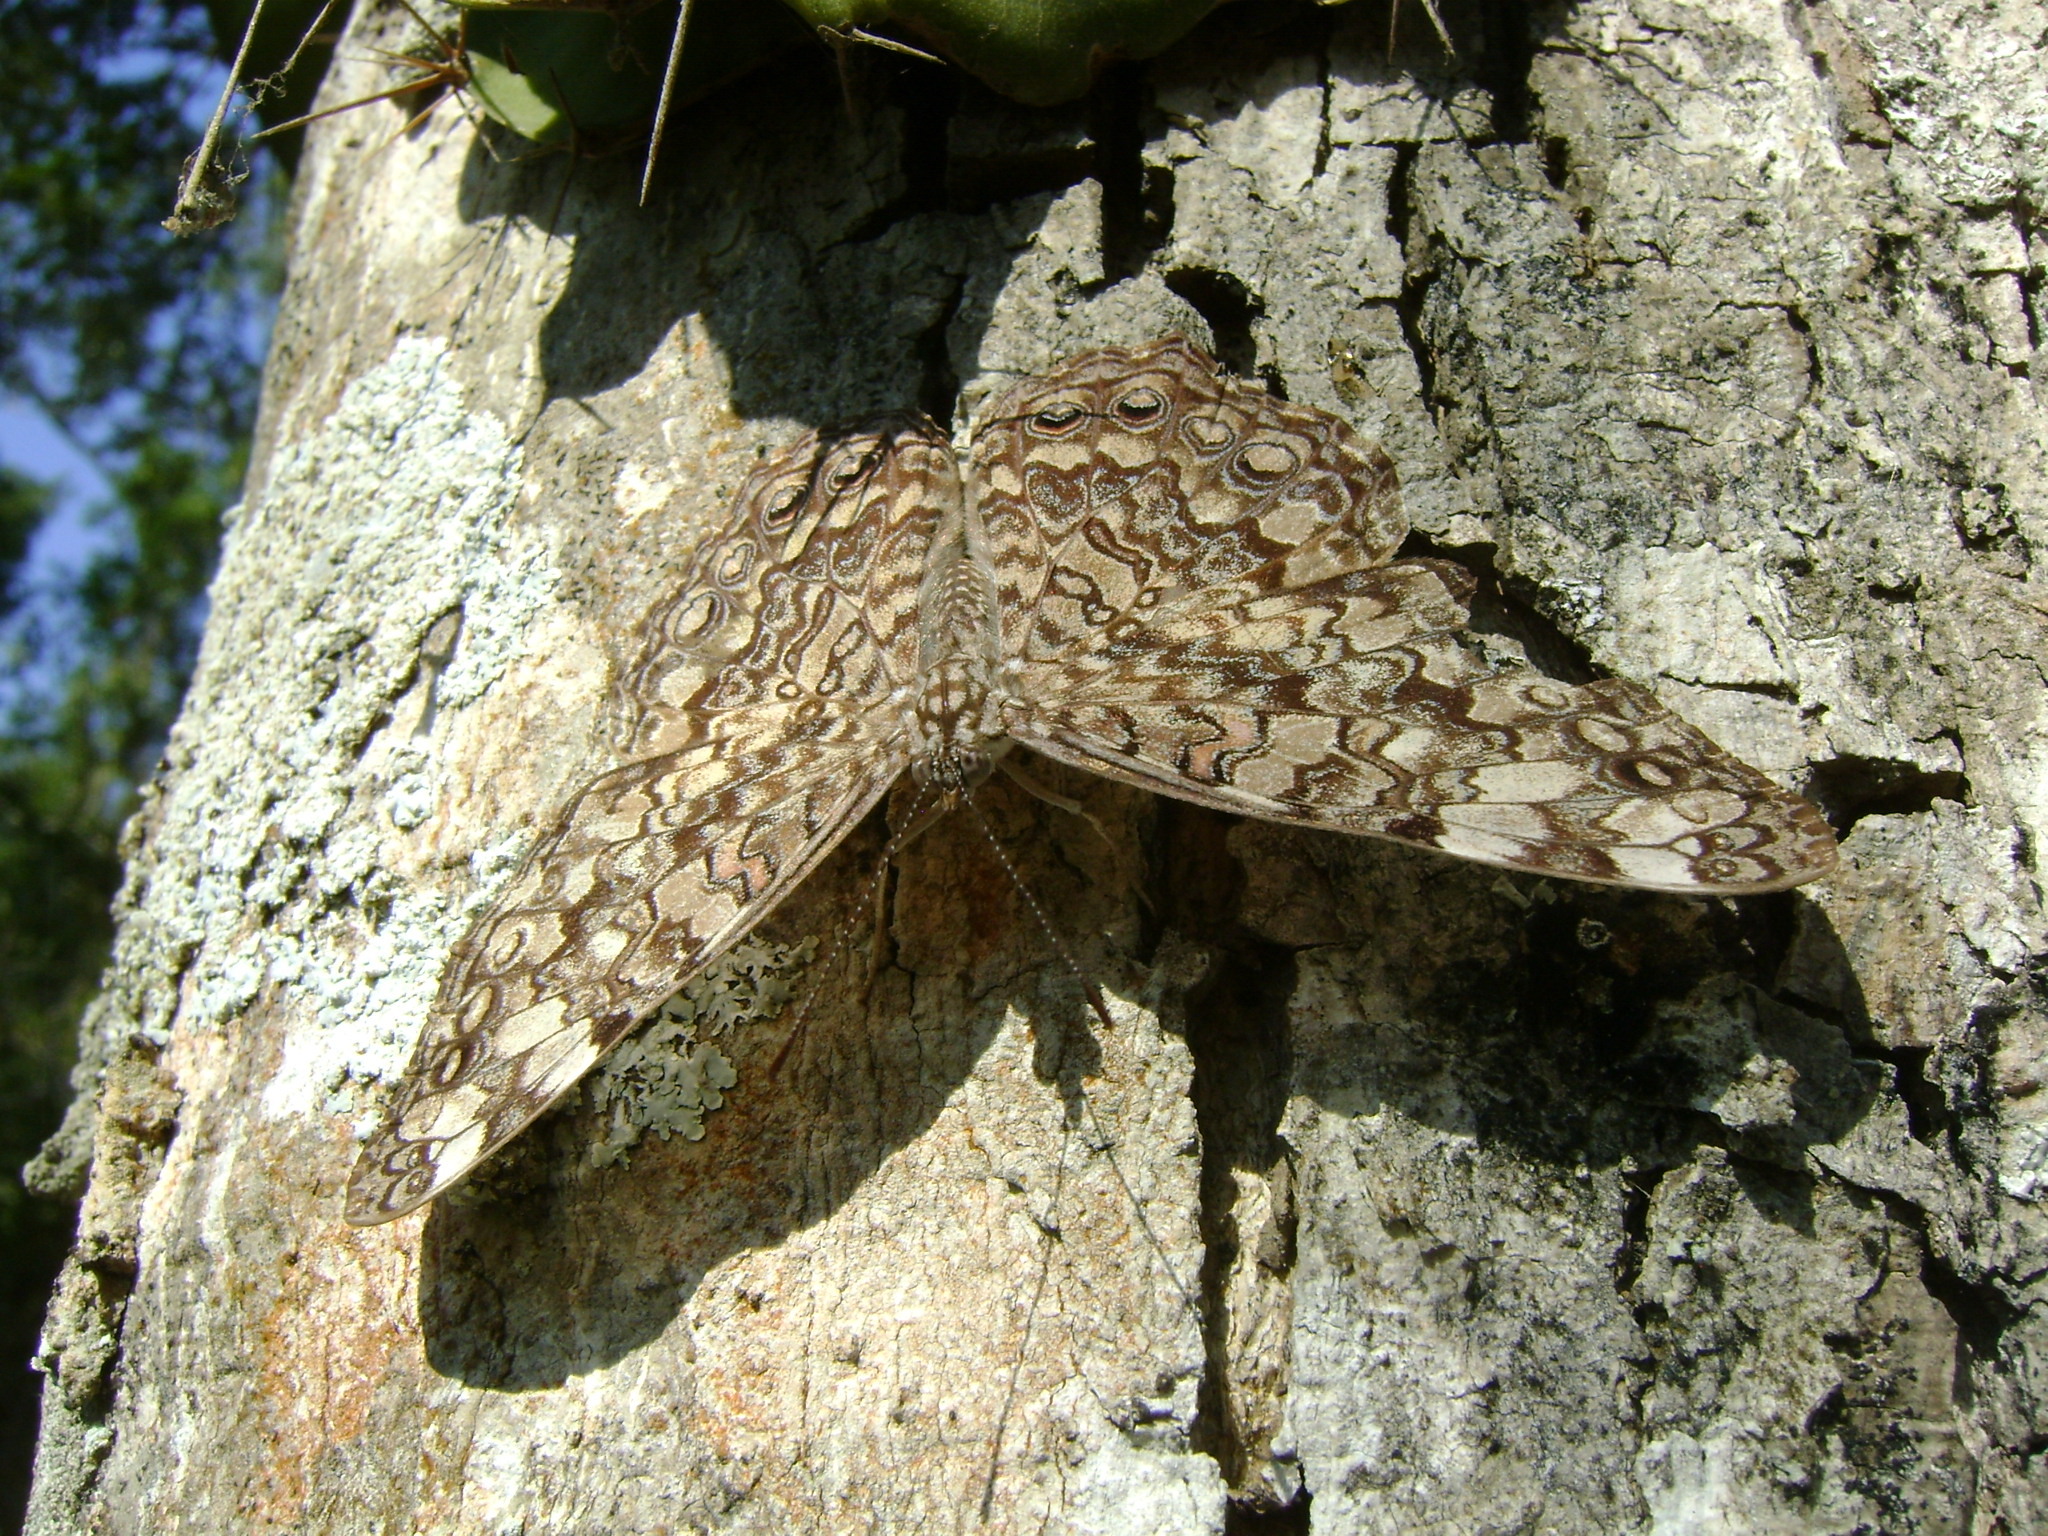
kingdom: Animalia
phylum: Arthropoda
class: Insecta
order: Lepidoptera
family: Nymphalidae
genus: Hamadryas
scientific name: Hamadryas guatemalena
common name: Guatemalan cracker
